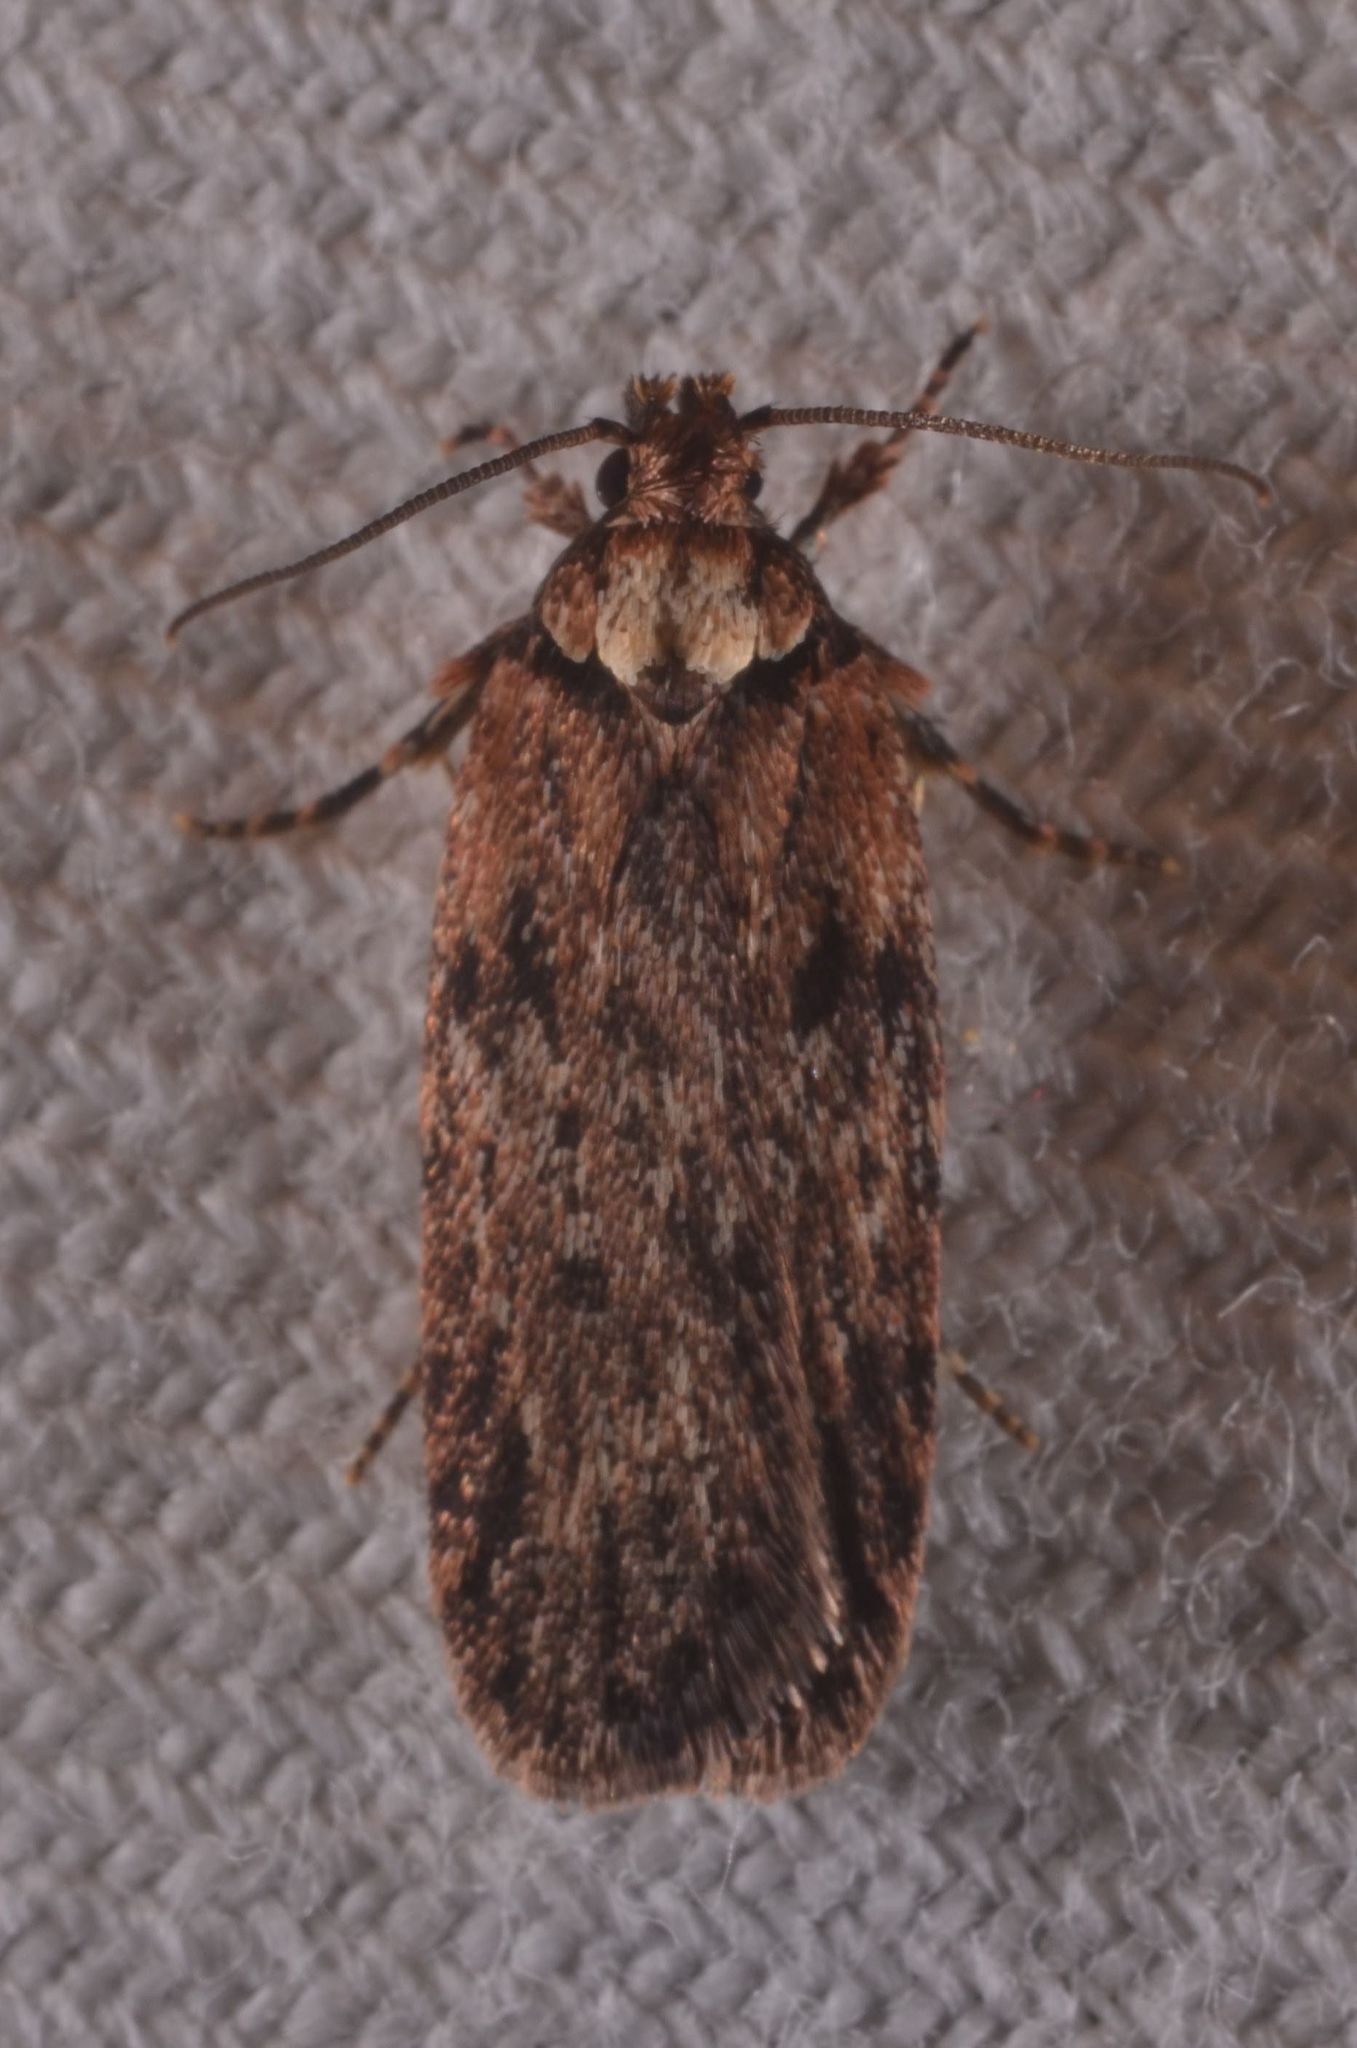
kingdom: Animalia
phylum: Arthropoda
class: Insecta
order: Lepidoptera
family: Depressariidae
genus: Depressaria
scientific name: Depressaria chaerophylli
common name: Streaked flat-body
